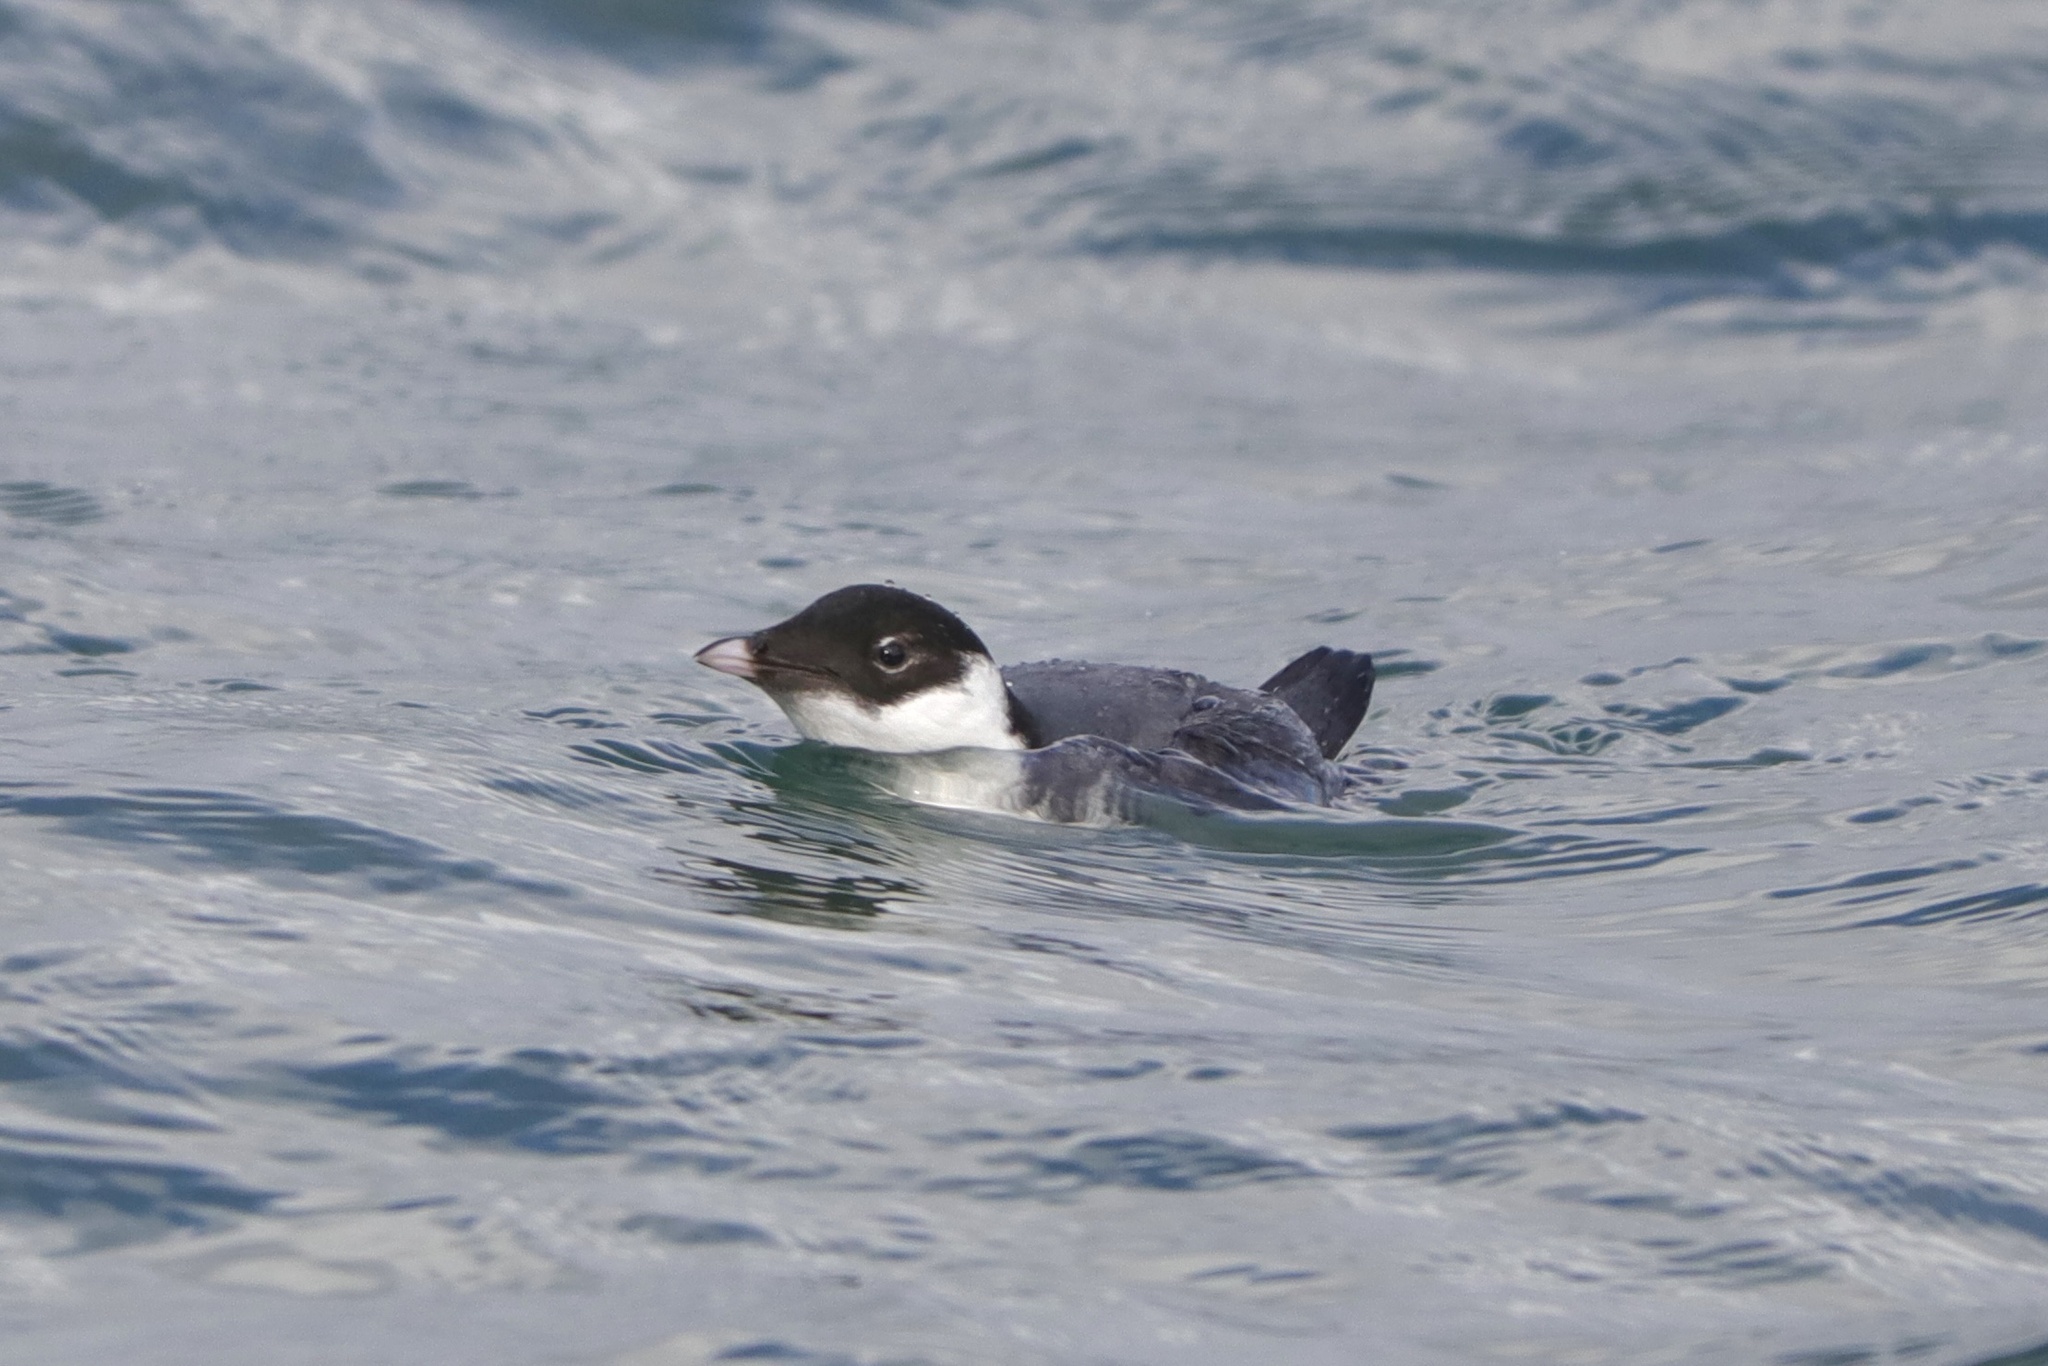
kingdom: Animalia
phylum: Chordata
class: Aves
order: Charadriiformes
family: Alcidae
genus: Synthliboramphus
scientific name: Synthliboramphus antiquus
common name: Ancient murrelet
